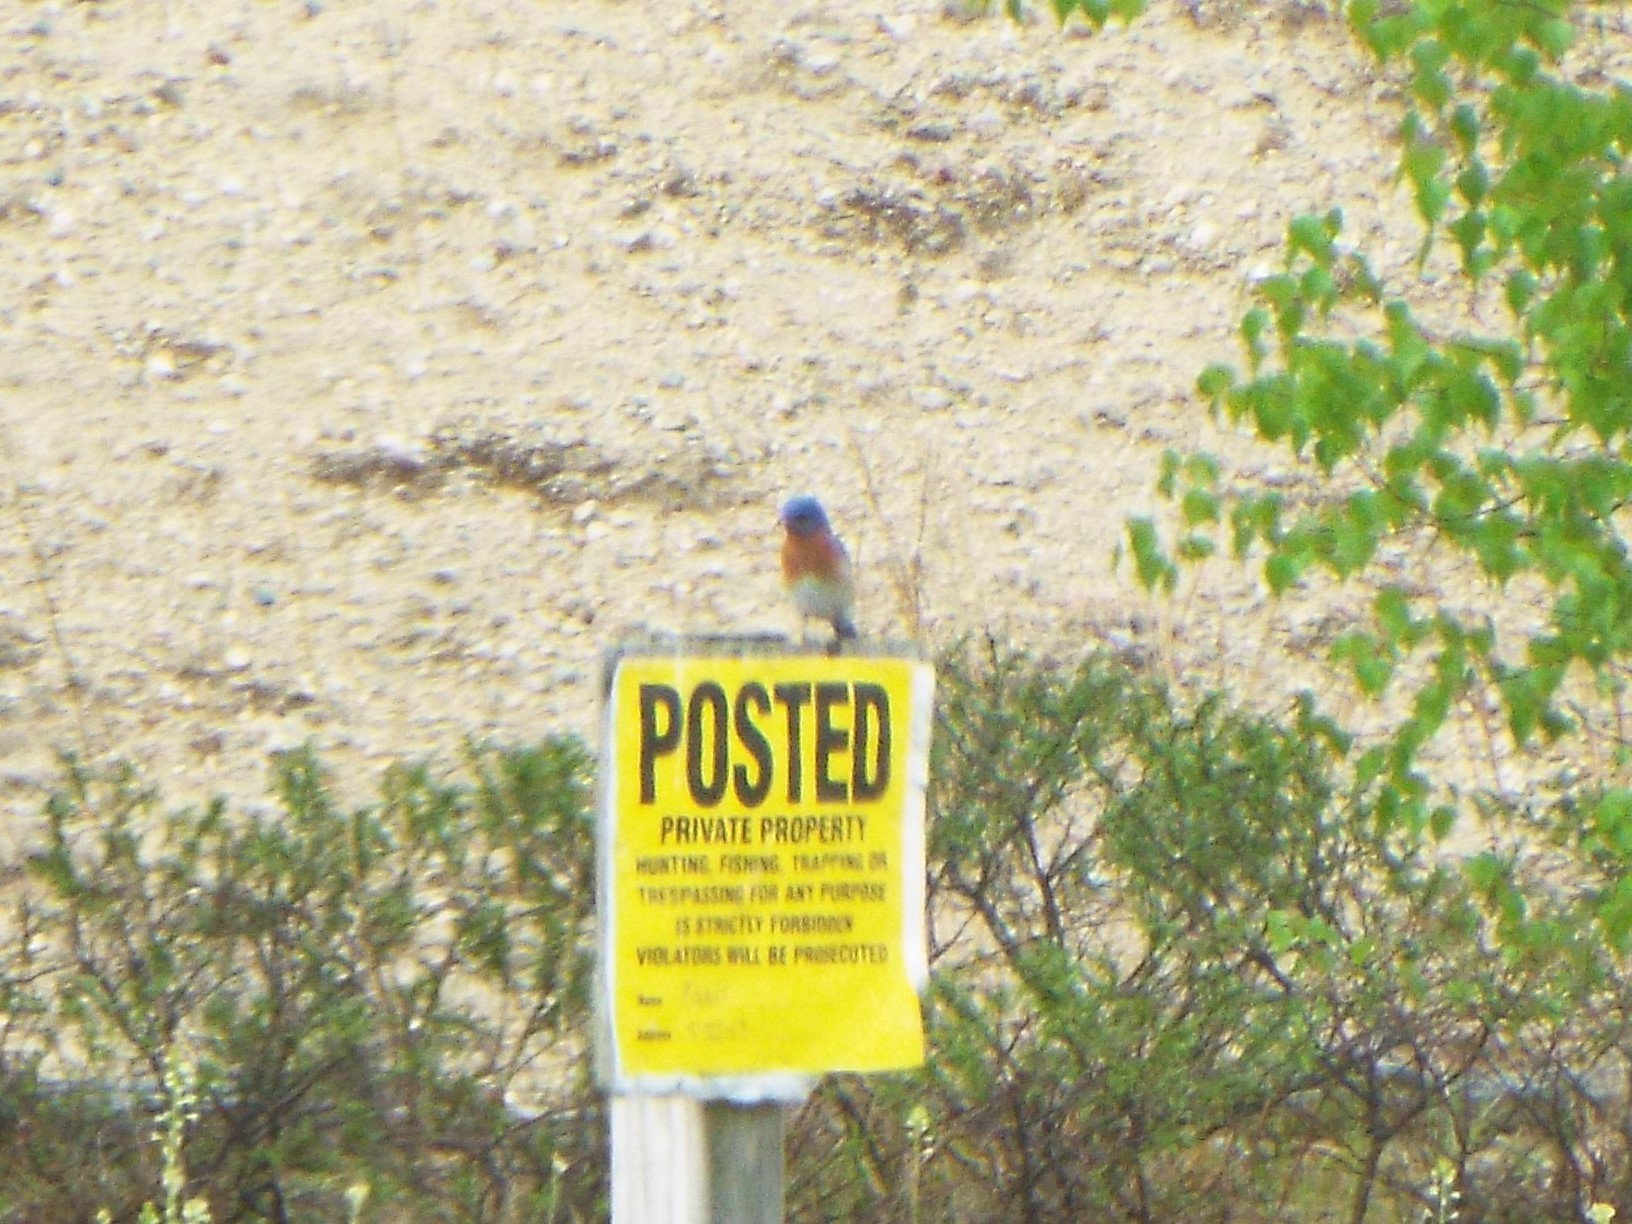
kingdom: Animalia
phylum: Chordata
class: Aves
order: Passeriformes
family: Turdidae
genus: Sialia
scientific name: Sialia sialis
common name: Eastern bluebird
